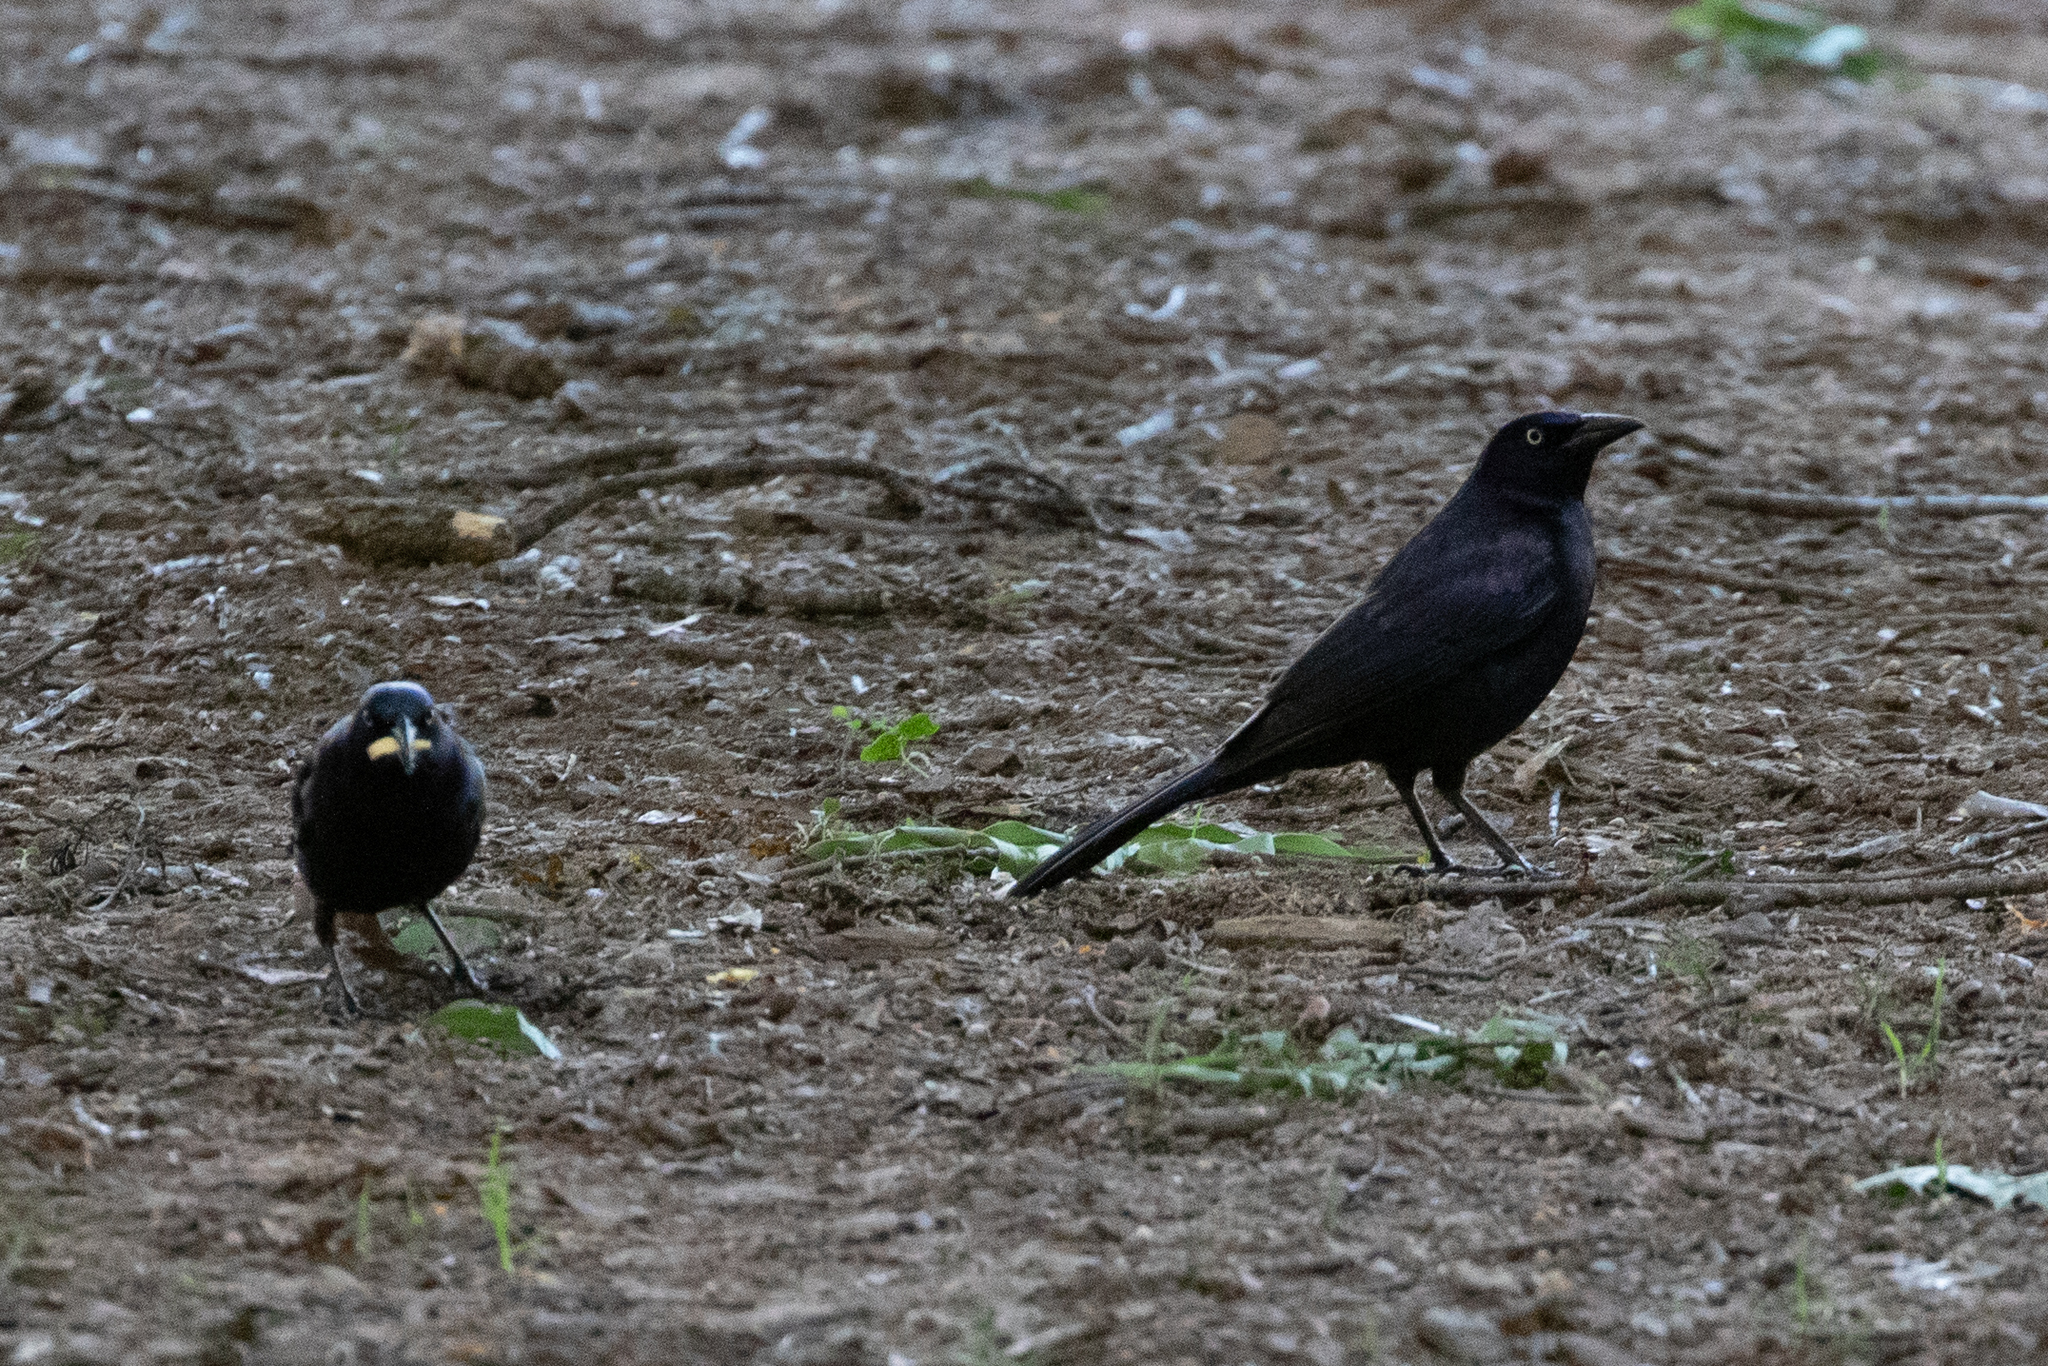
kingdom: Animalia
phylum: Chordata
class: Aves
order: Passeriformes
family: Icteridae
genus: Quiscalus
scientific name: Quiscalus quiscula
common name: Common grackle
